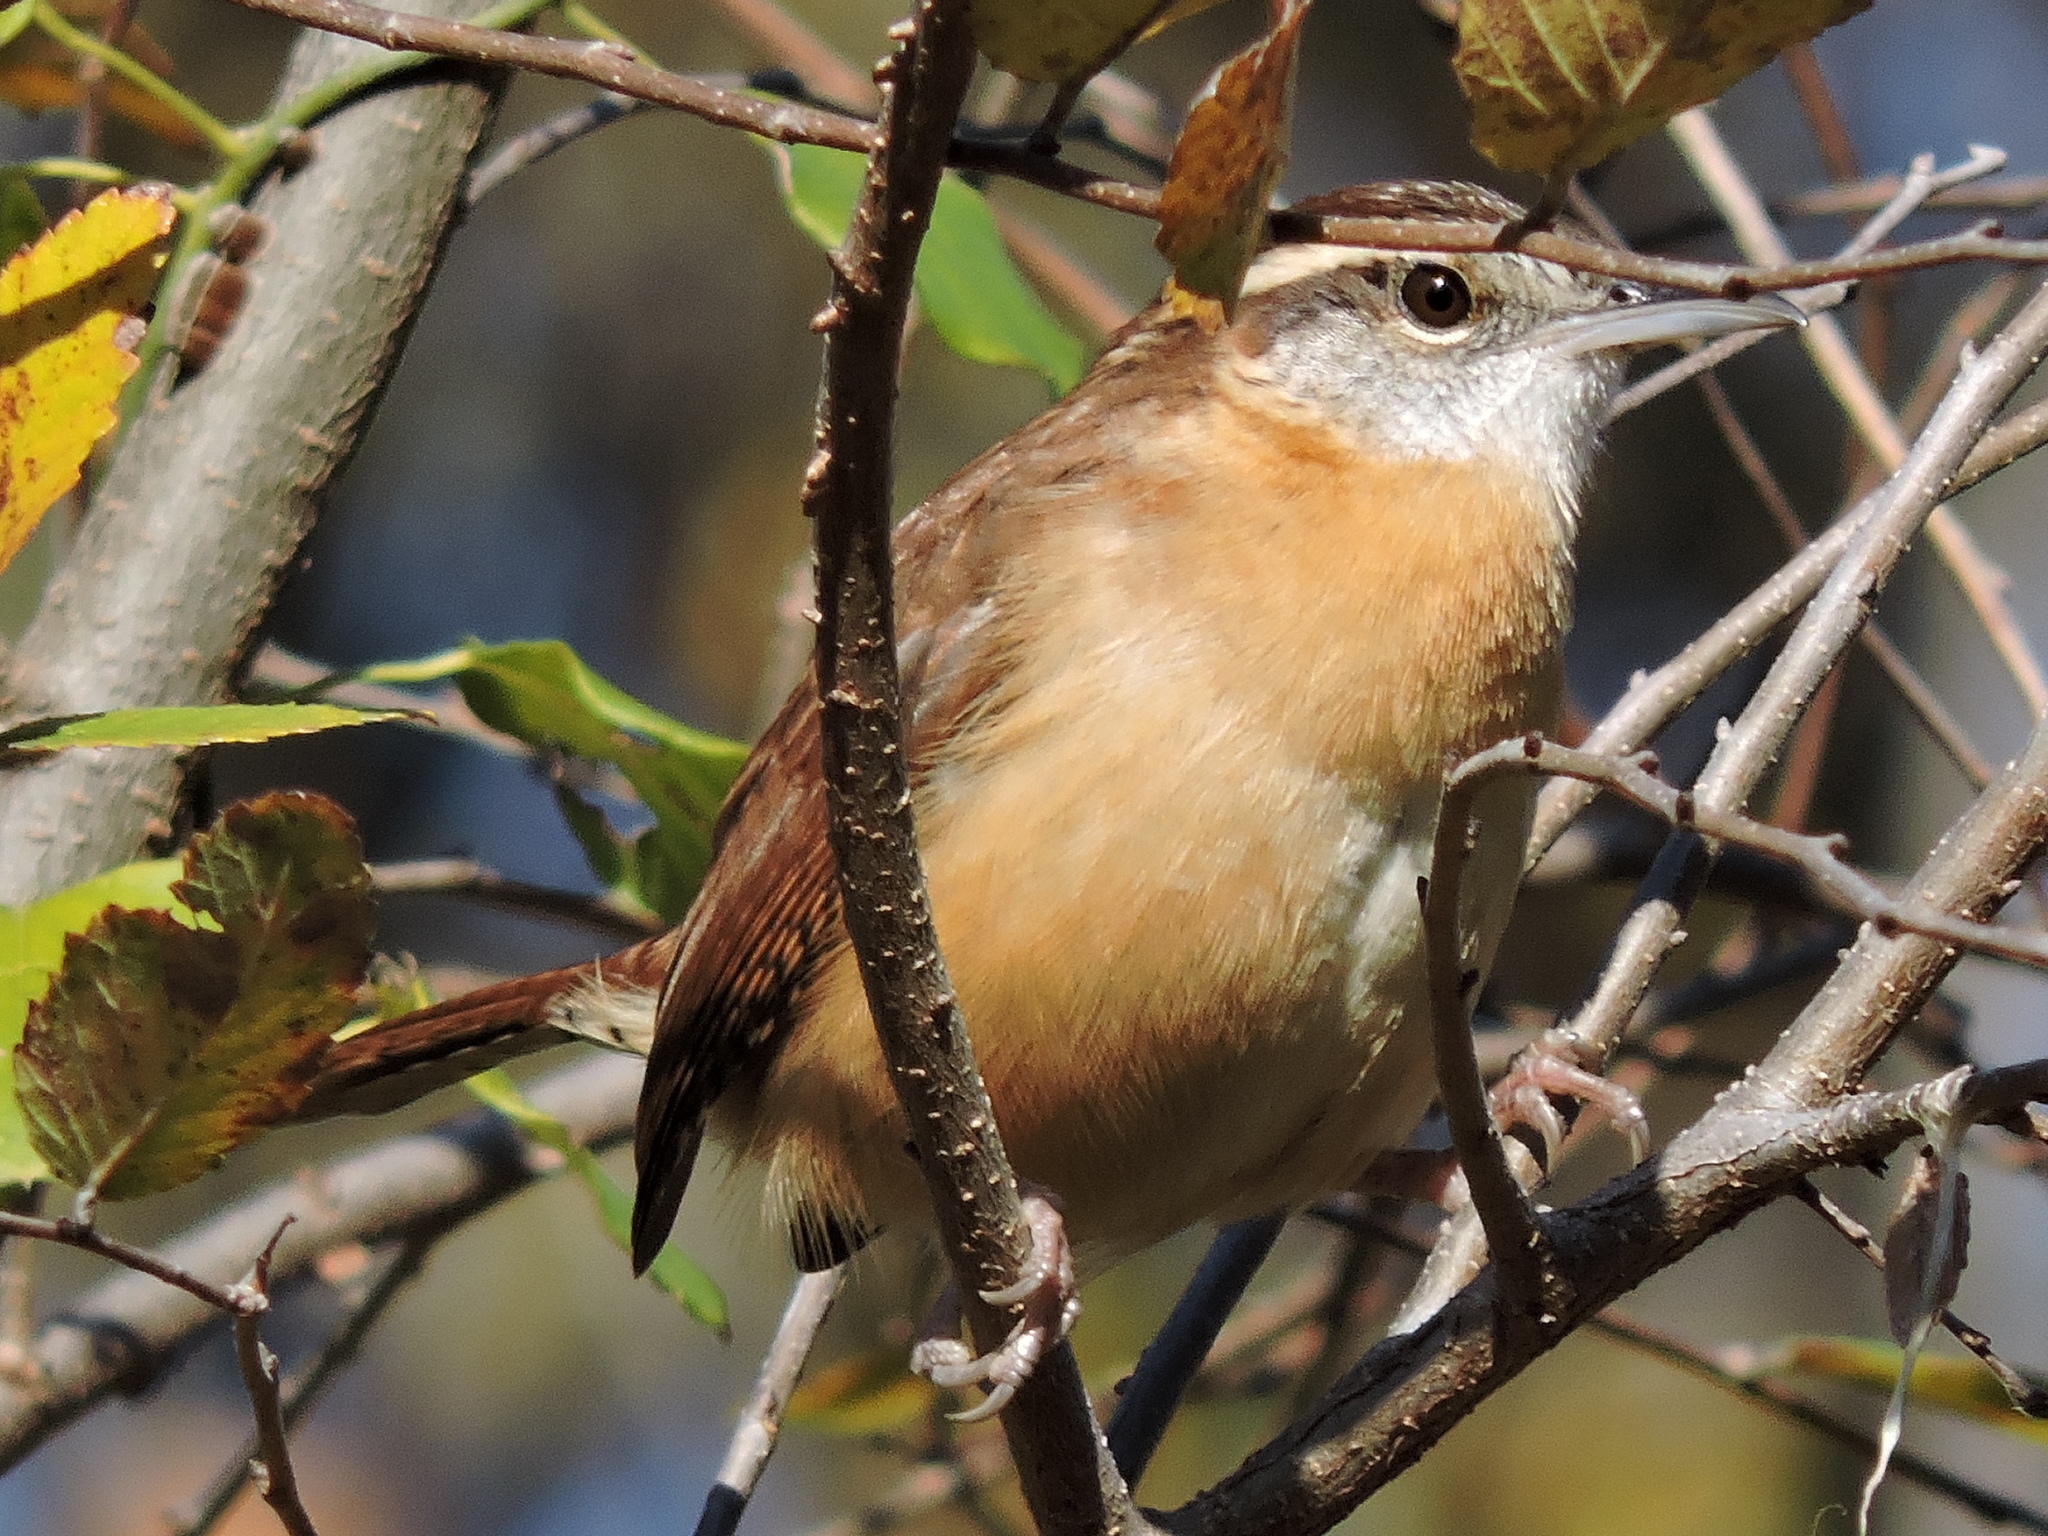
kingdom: Animalia
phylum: Chordata
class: Aves
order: Passeriformes
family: Troglodytidae
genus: Thryothorus
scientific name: Thryothorus ludovicianus
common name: Carolina wren
